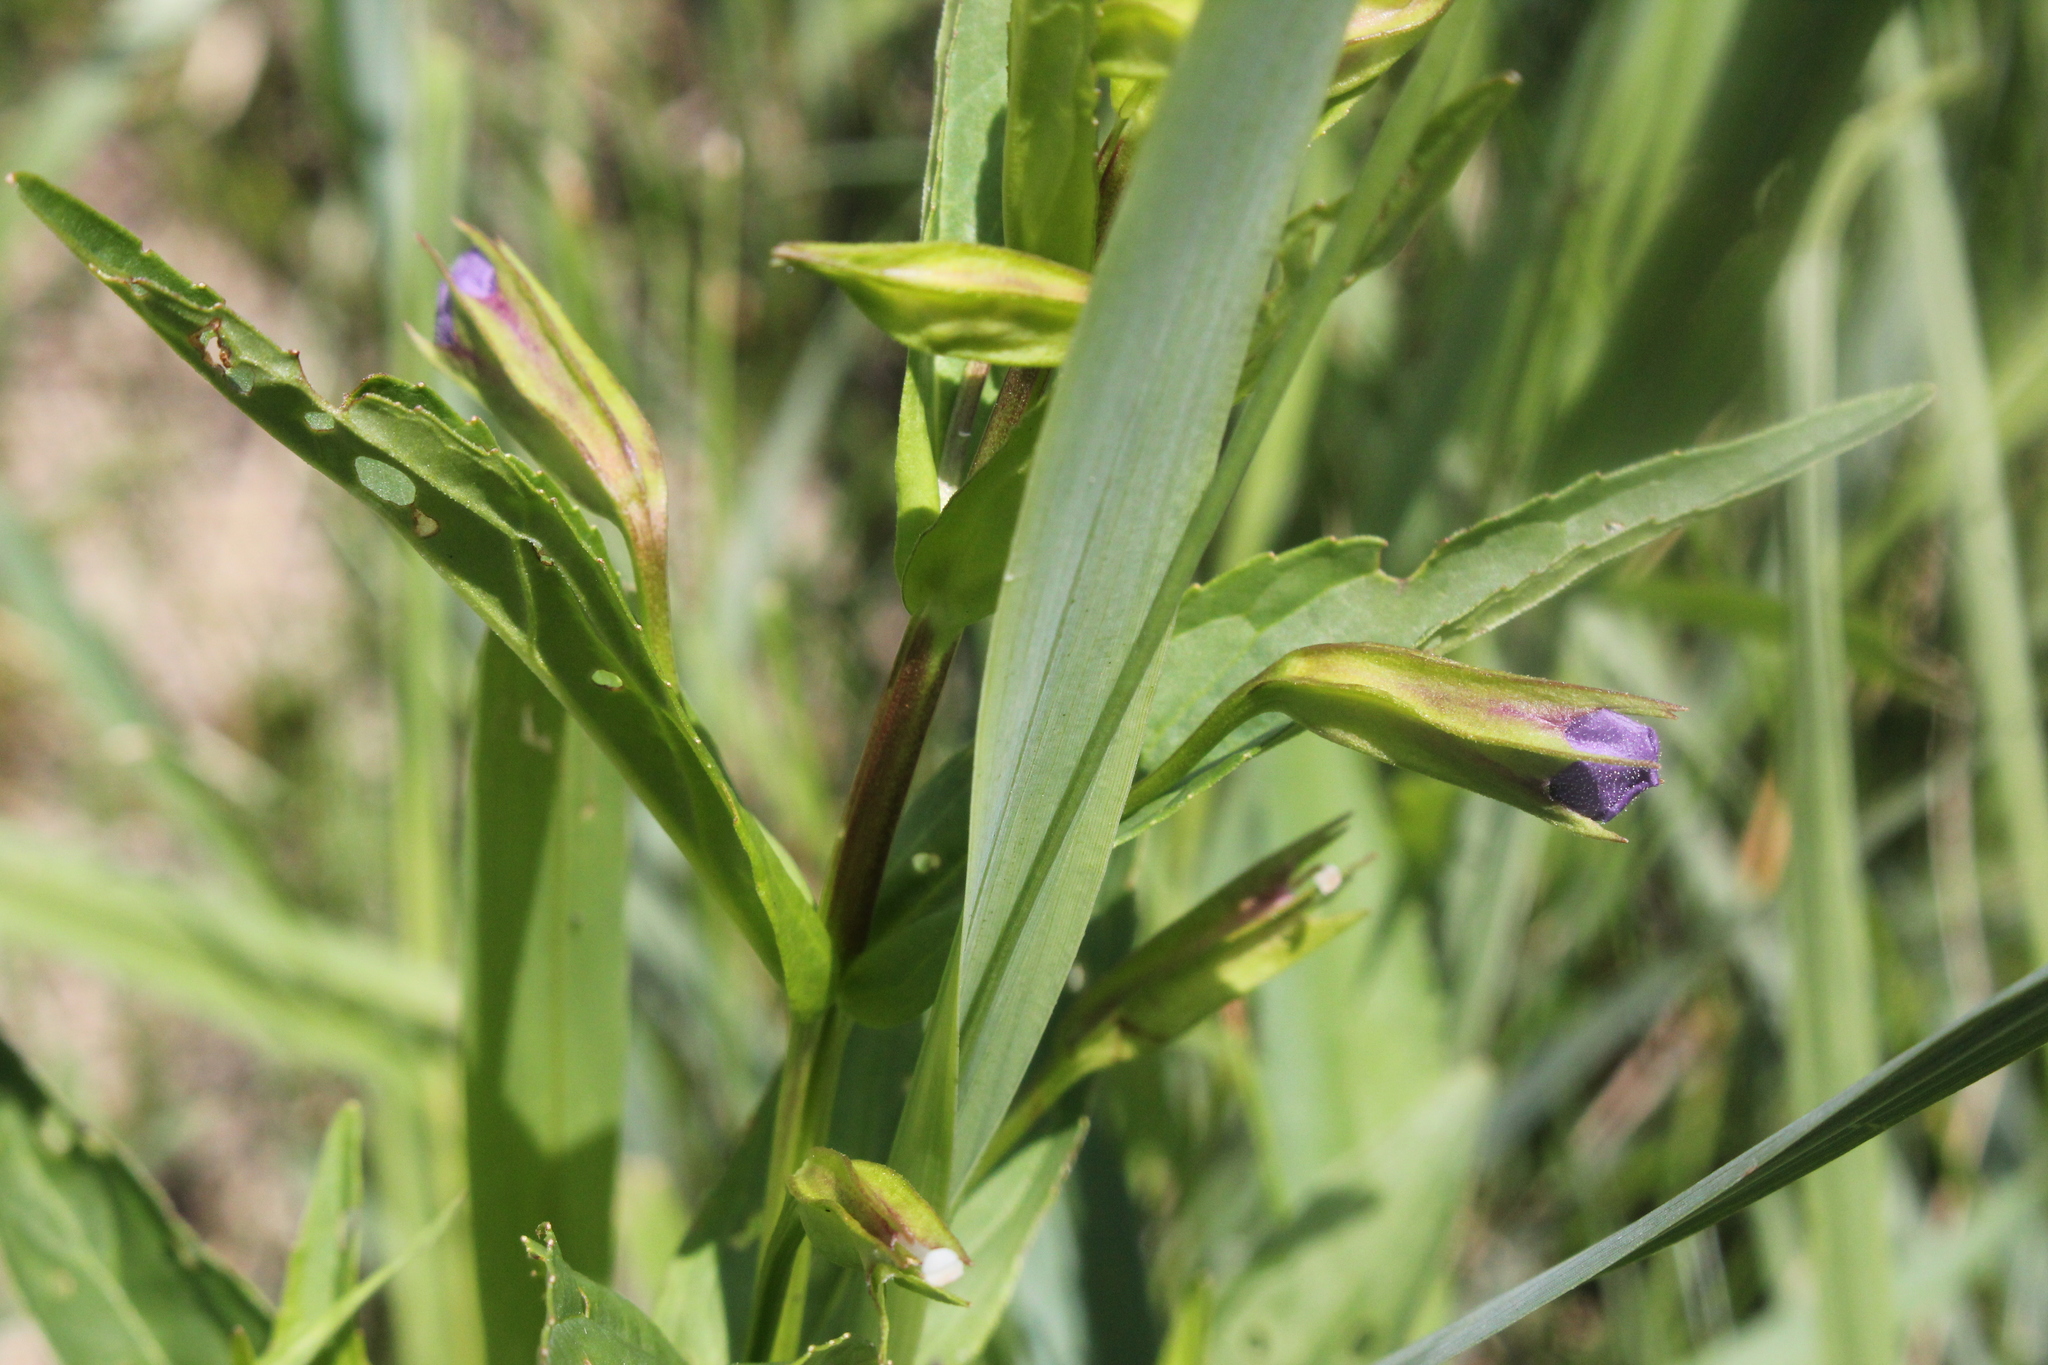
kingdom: Plantae
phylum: Tracheophyta
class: Magnoliopsida
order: Lamiales
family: Phrymaceae
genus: Mimulus
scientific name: Mimulus ringens
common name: Allegheny monkeyflower
